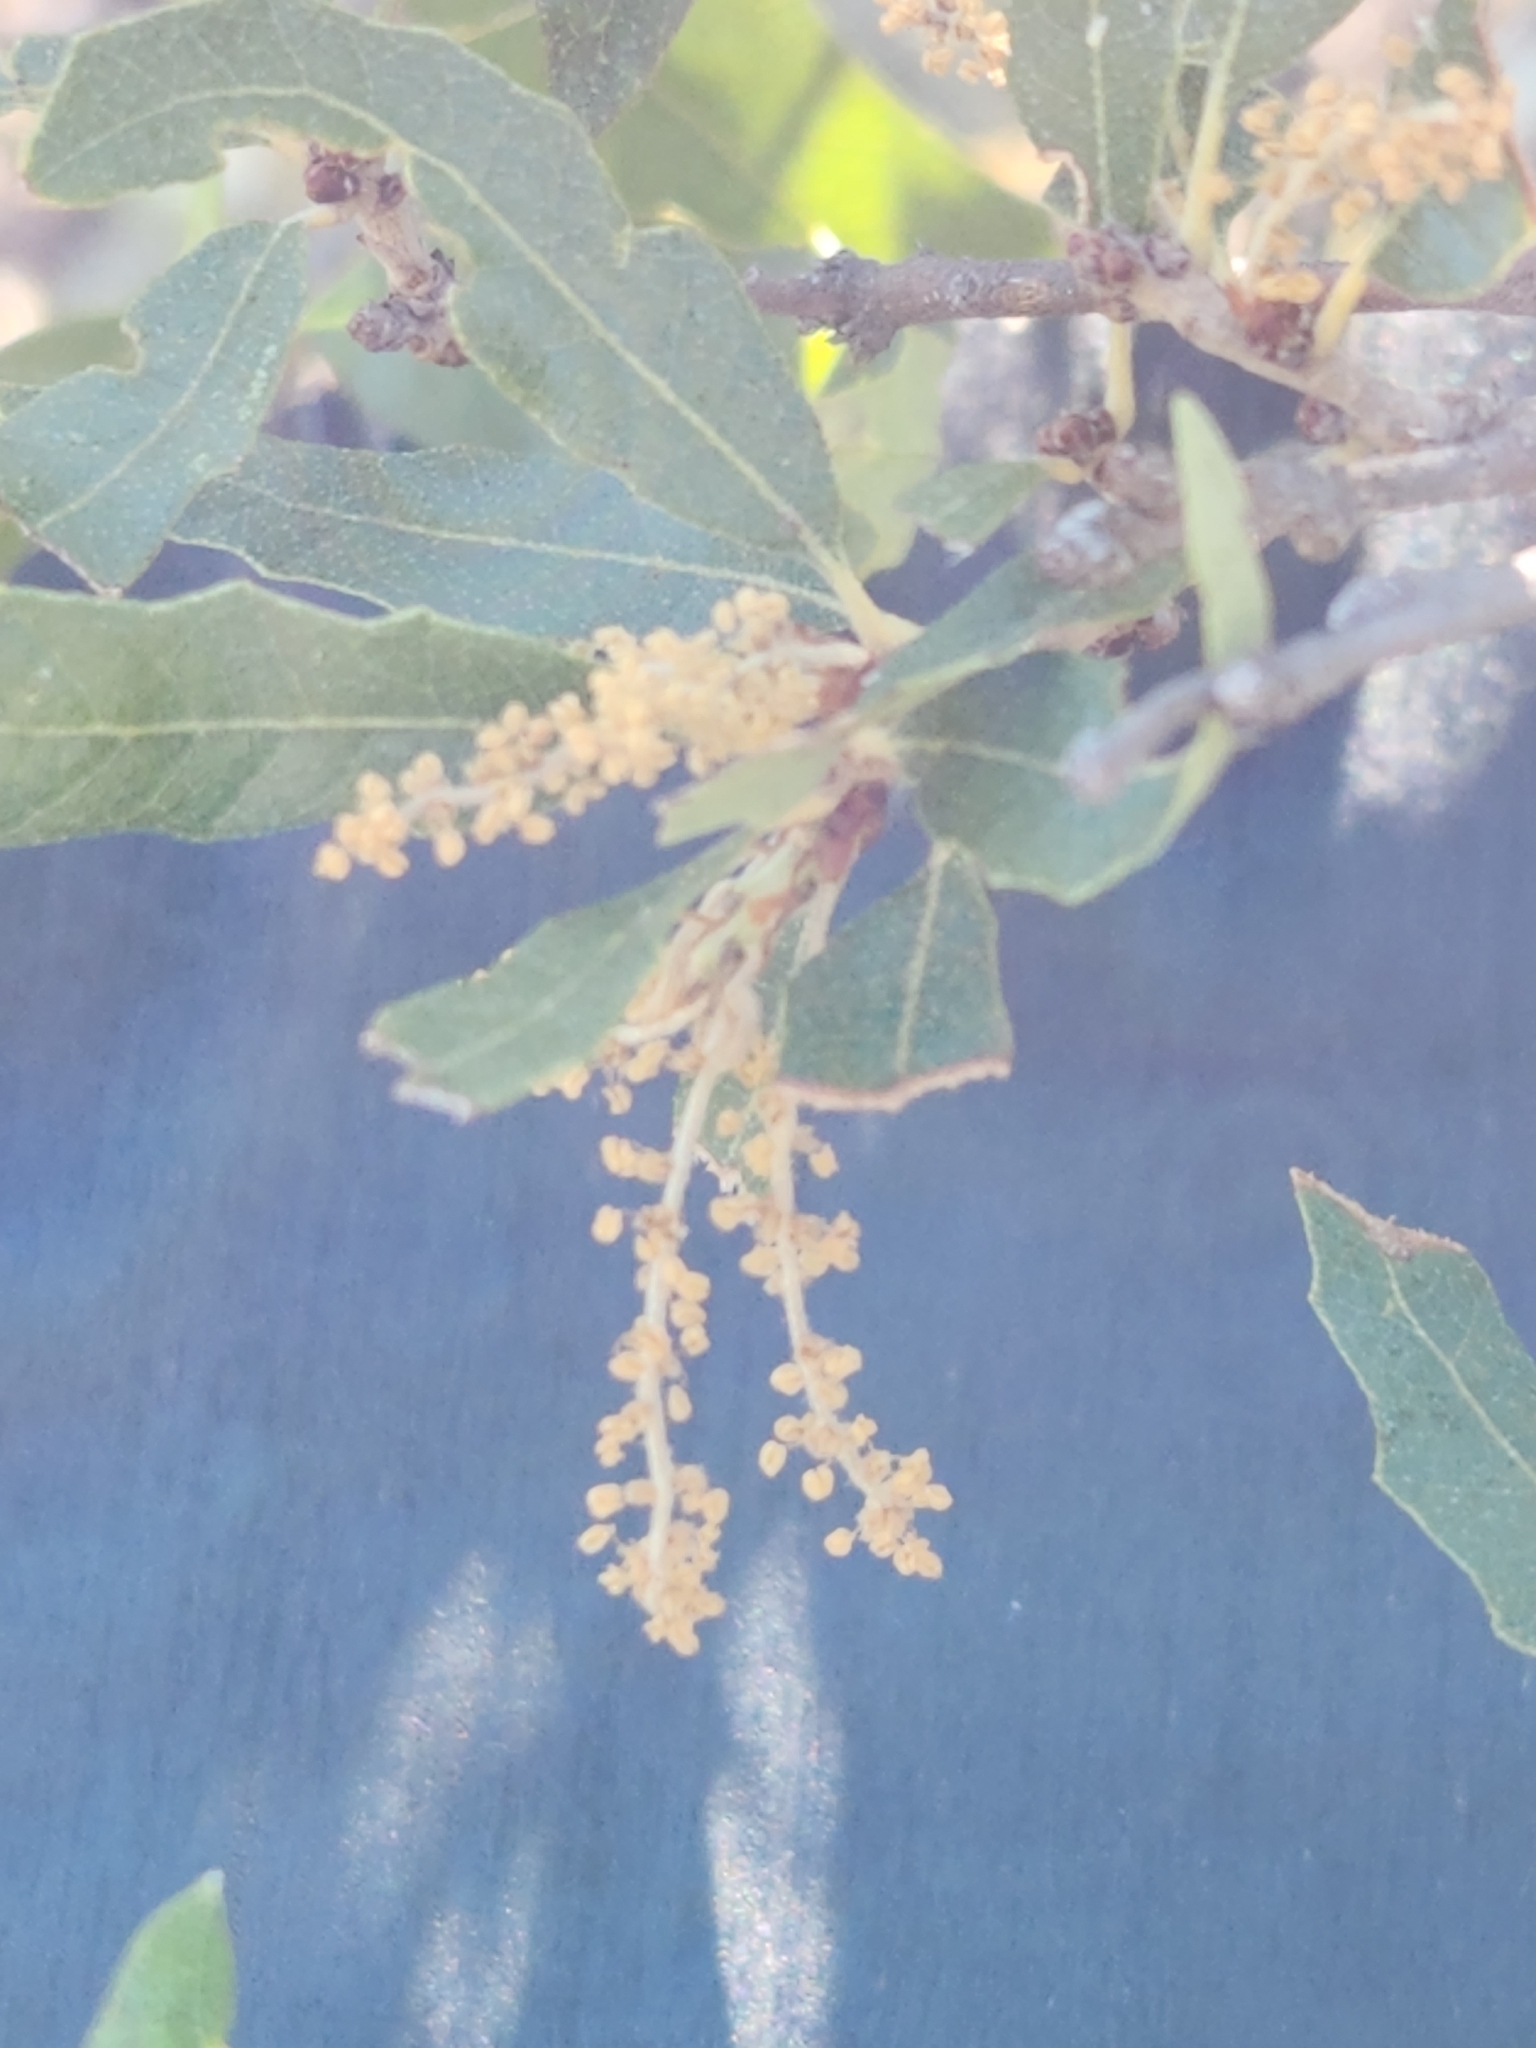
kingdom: Plantae
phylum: Tracheophyta
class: Magnoliopsida
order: Fagales
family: Fagaceae
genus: Quercus
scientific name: Quercus vaseyana
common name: Sandpaper oak
